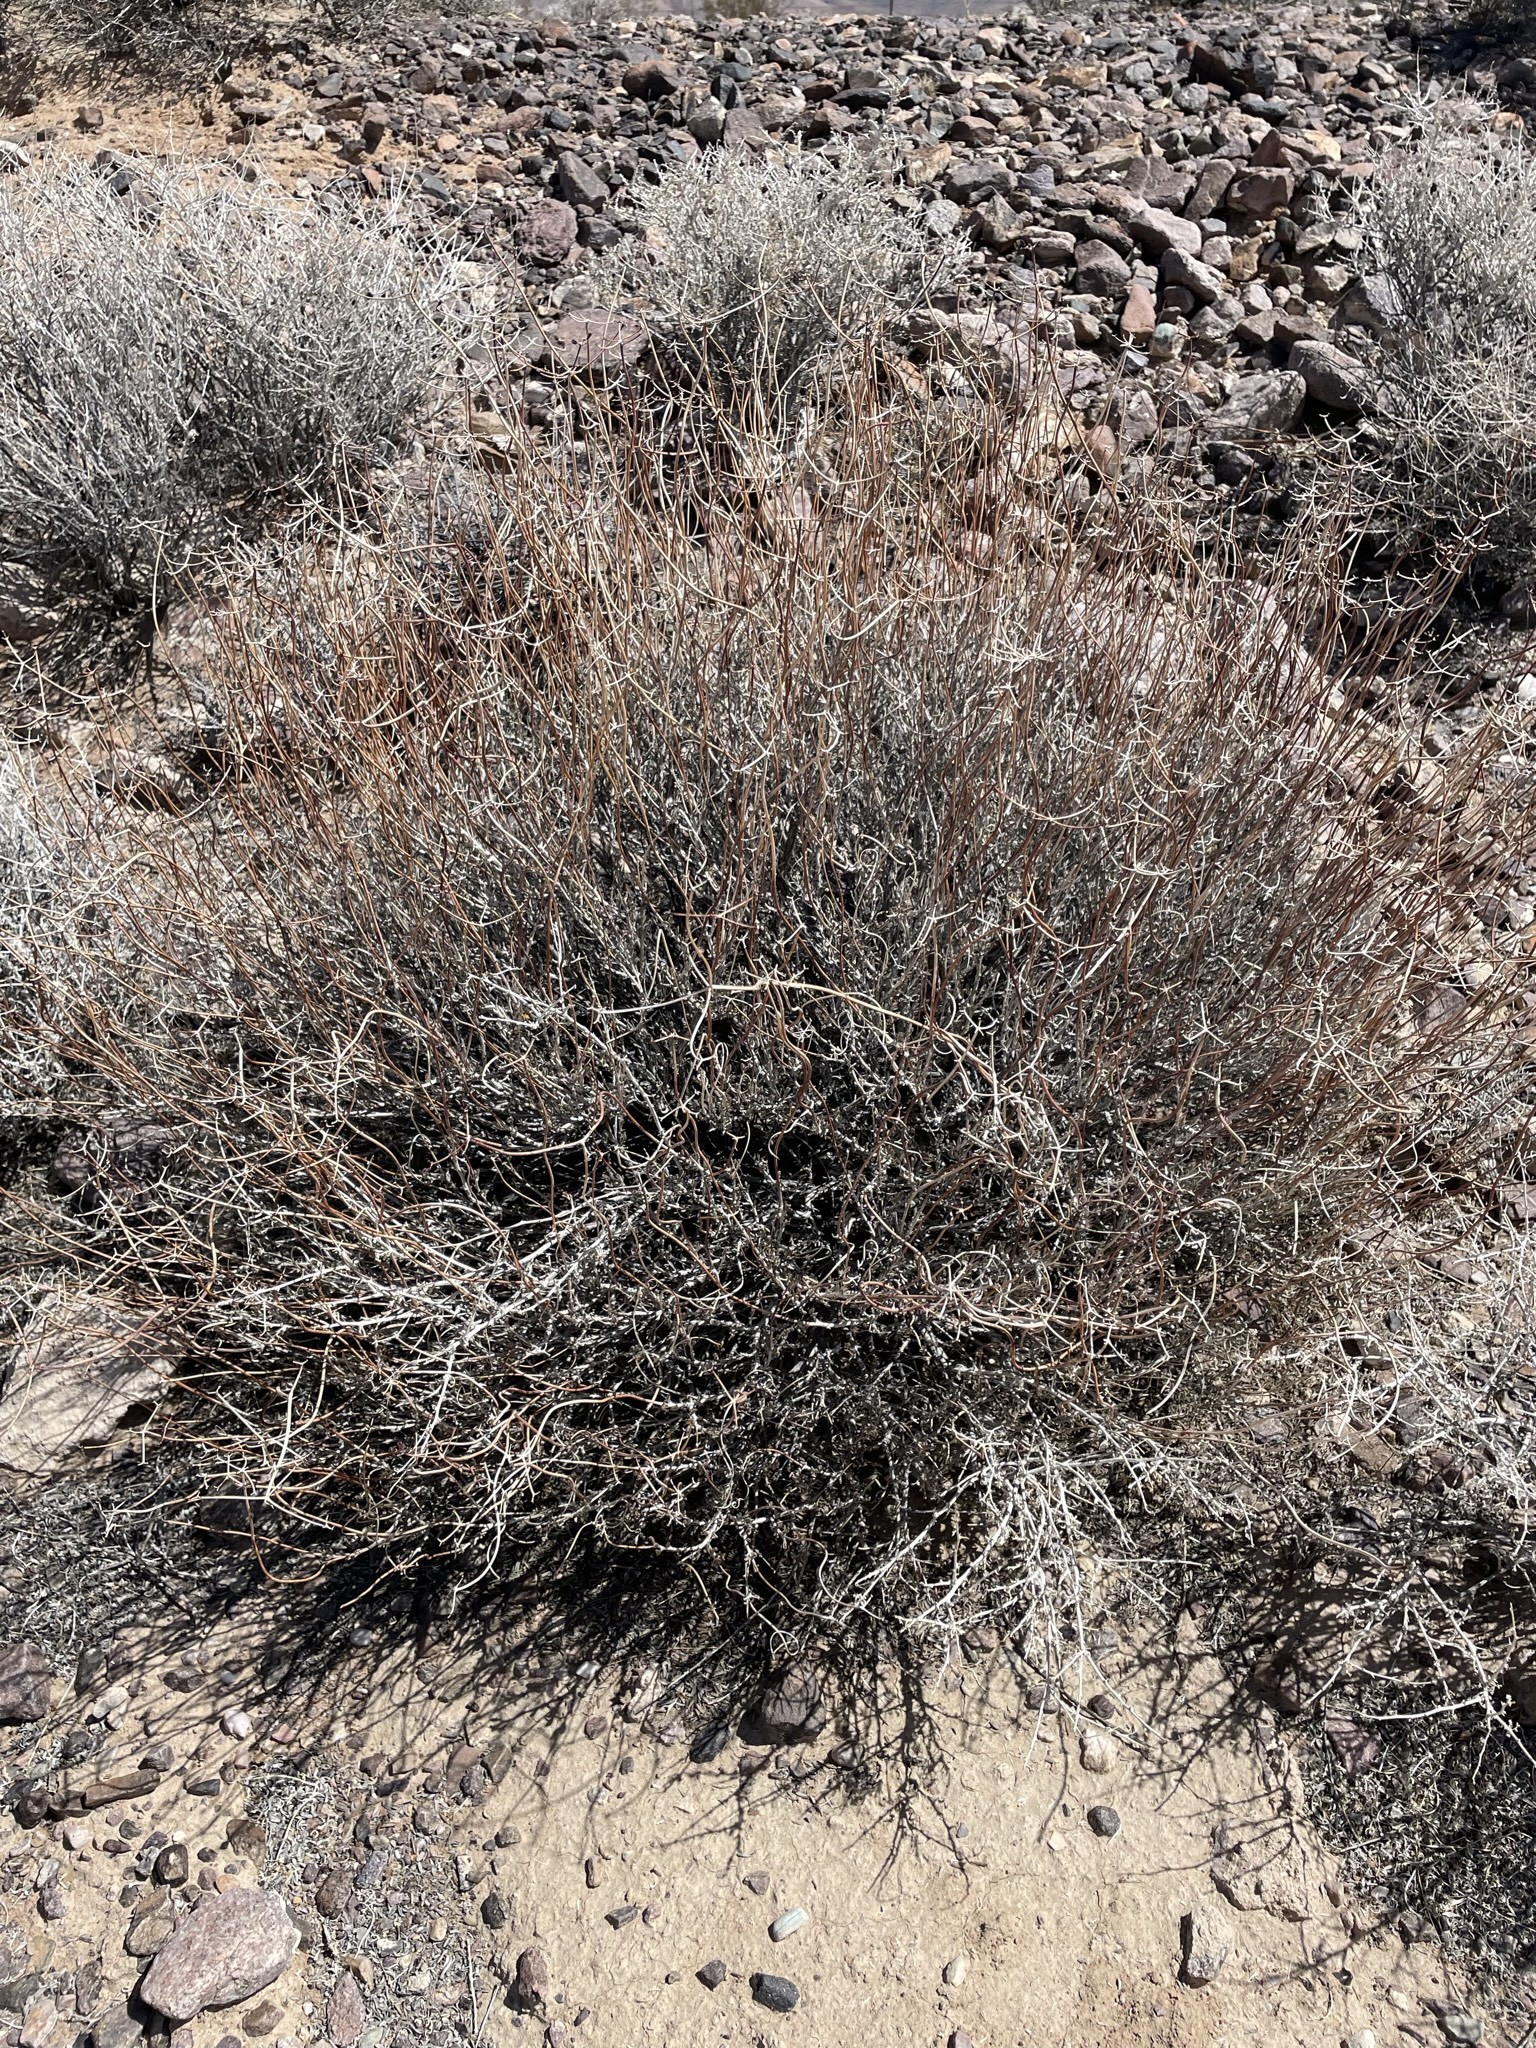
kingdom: Plantae
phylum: Tracheophyta
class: Magnoliopsida
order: Caryophyllales
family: Polygonaceae
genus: Eriogonum
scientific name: Eriogonum fasciculatum
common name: California wild buckwheat
